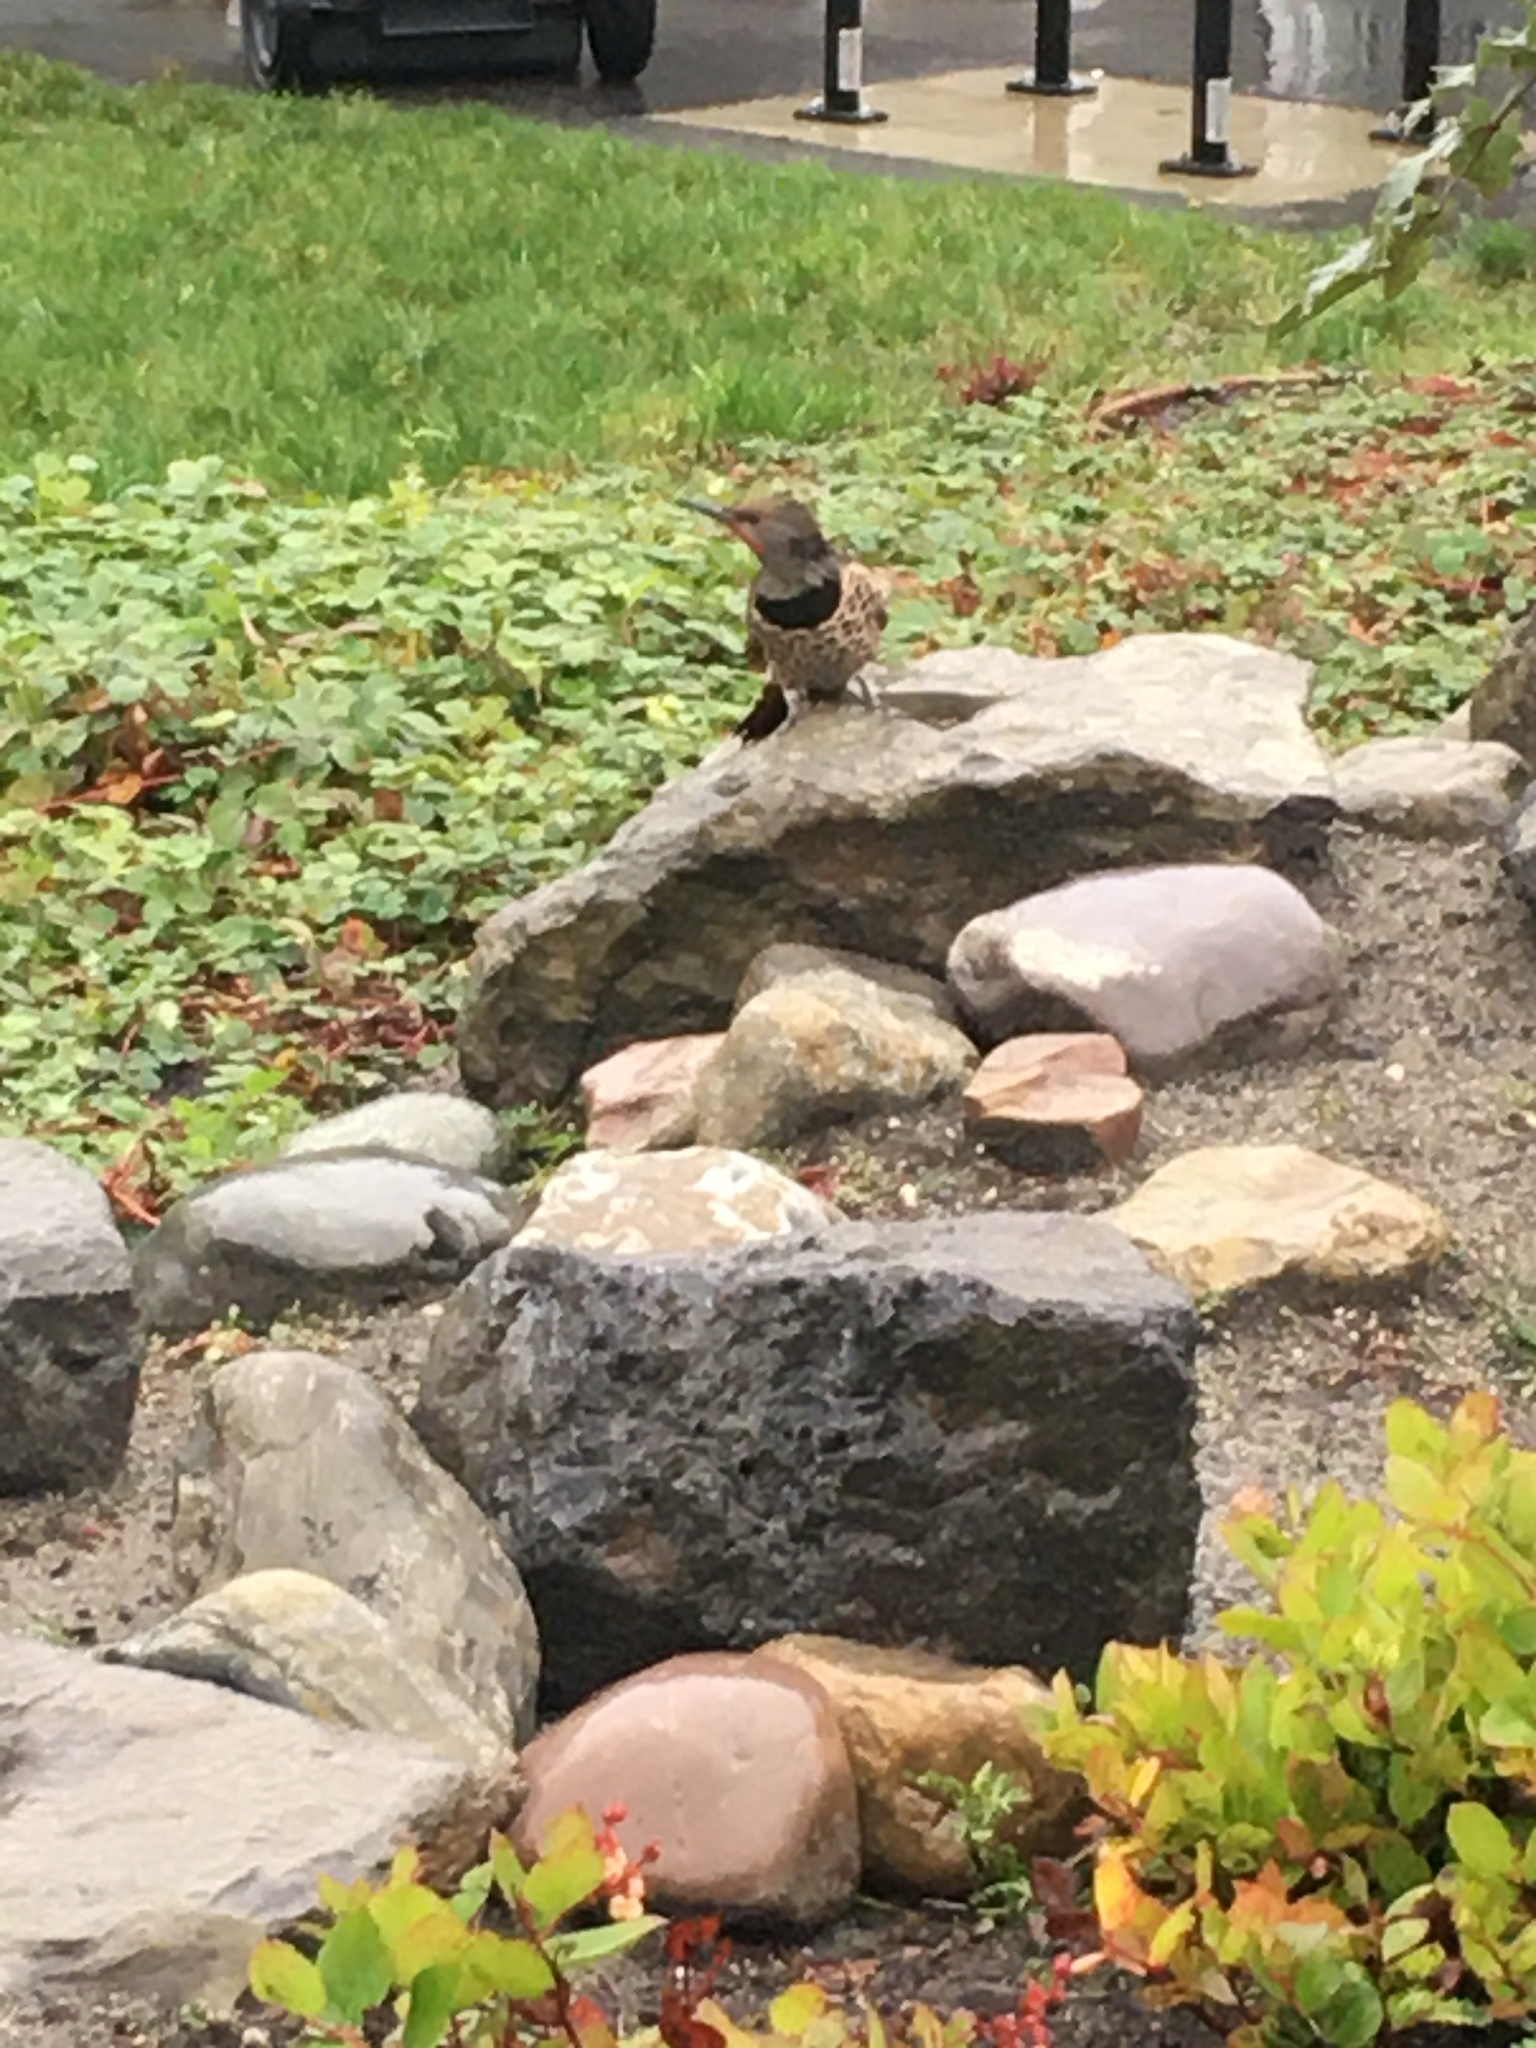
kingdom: Animalia
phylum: Chordata
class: Aves
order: Piciformes
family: Picidae
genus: Colaptes
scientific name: Colaptes auratus
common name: Northern flicker
